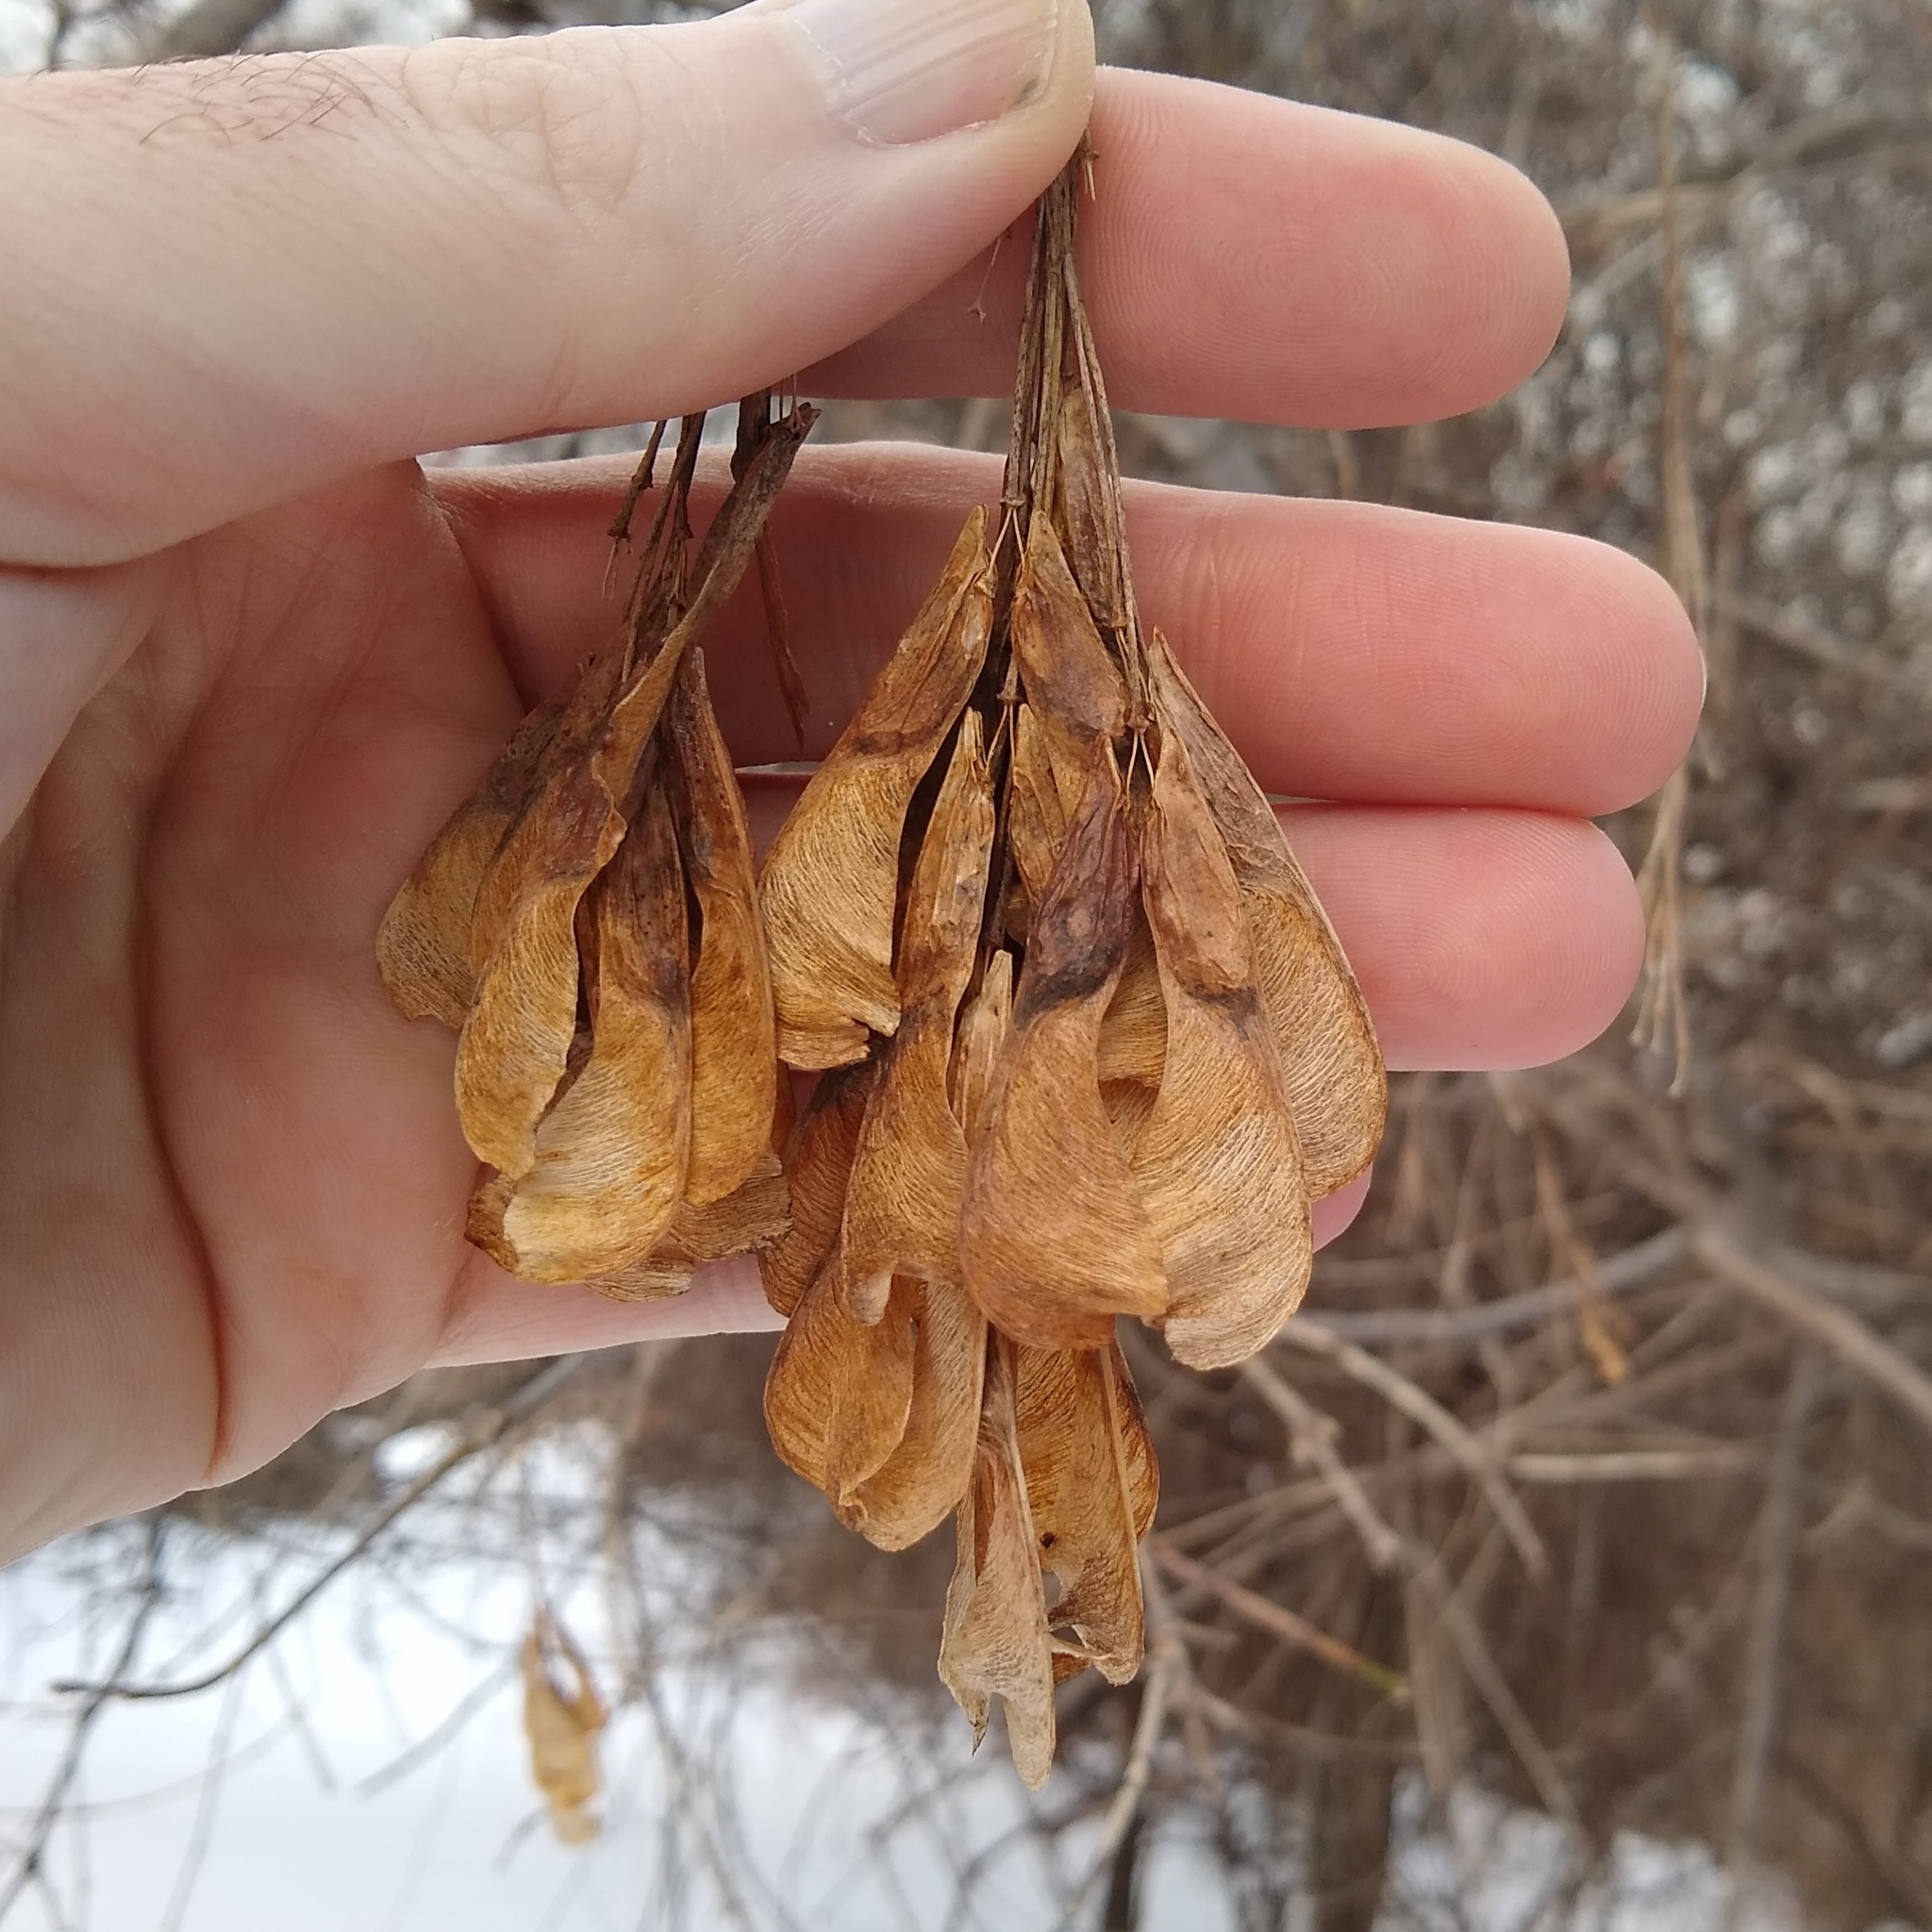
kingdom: Plantae
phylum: Tracheophyta
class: Magnoliopsida
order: Sapindales
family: Sapindaceae
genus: Acer
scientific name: Acer negundo
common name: Ashleaf maple
